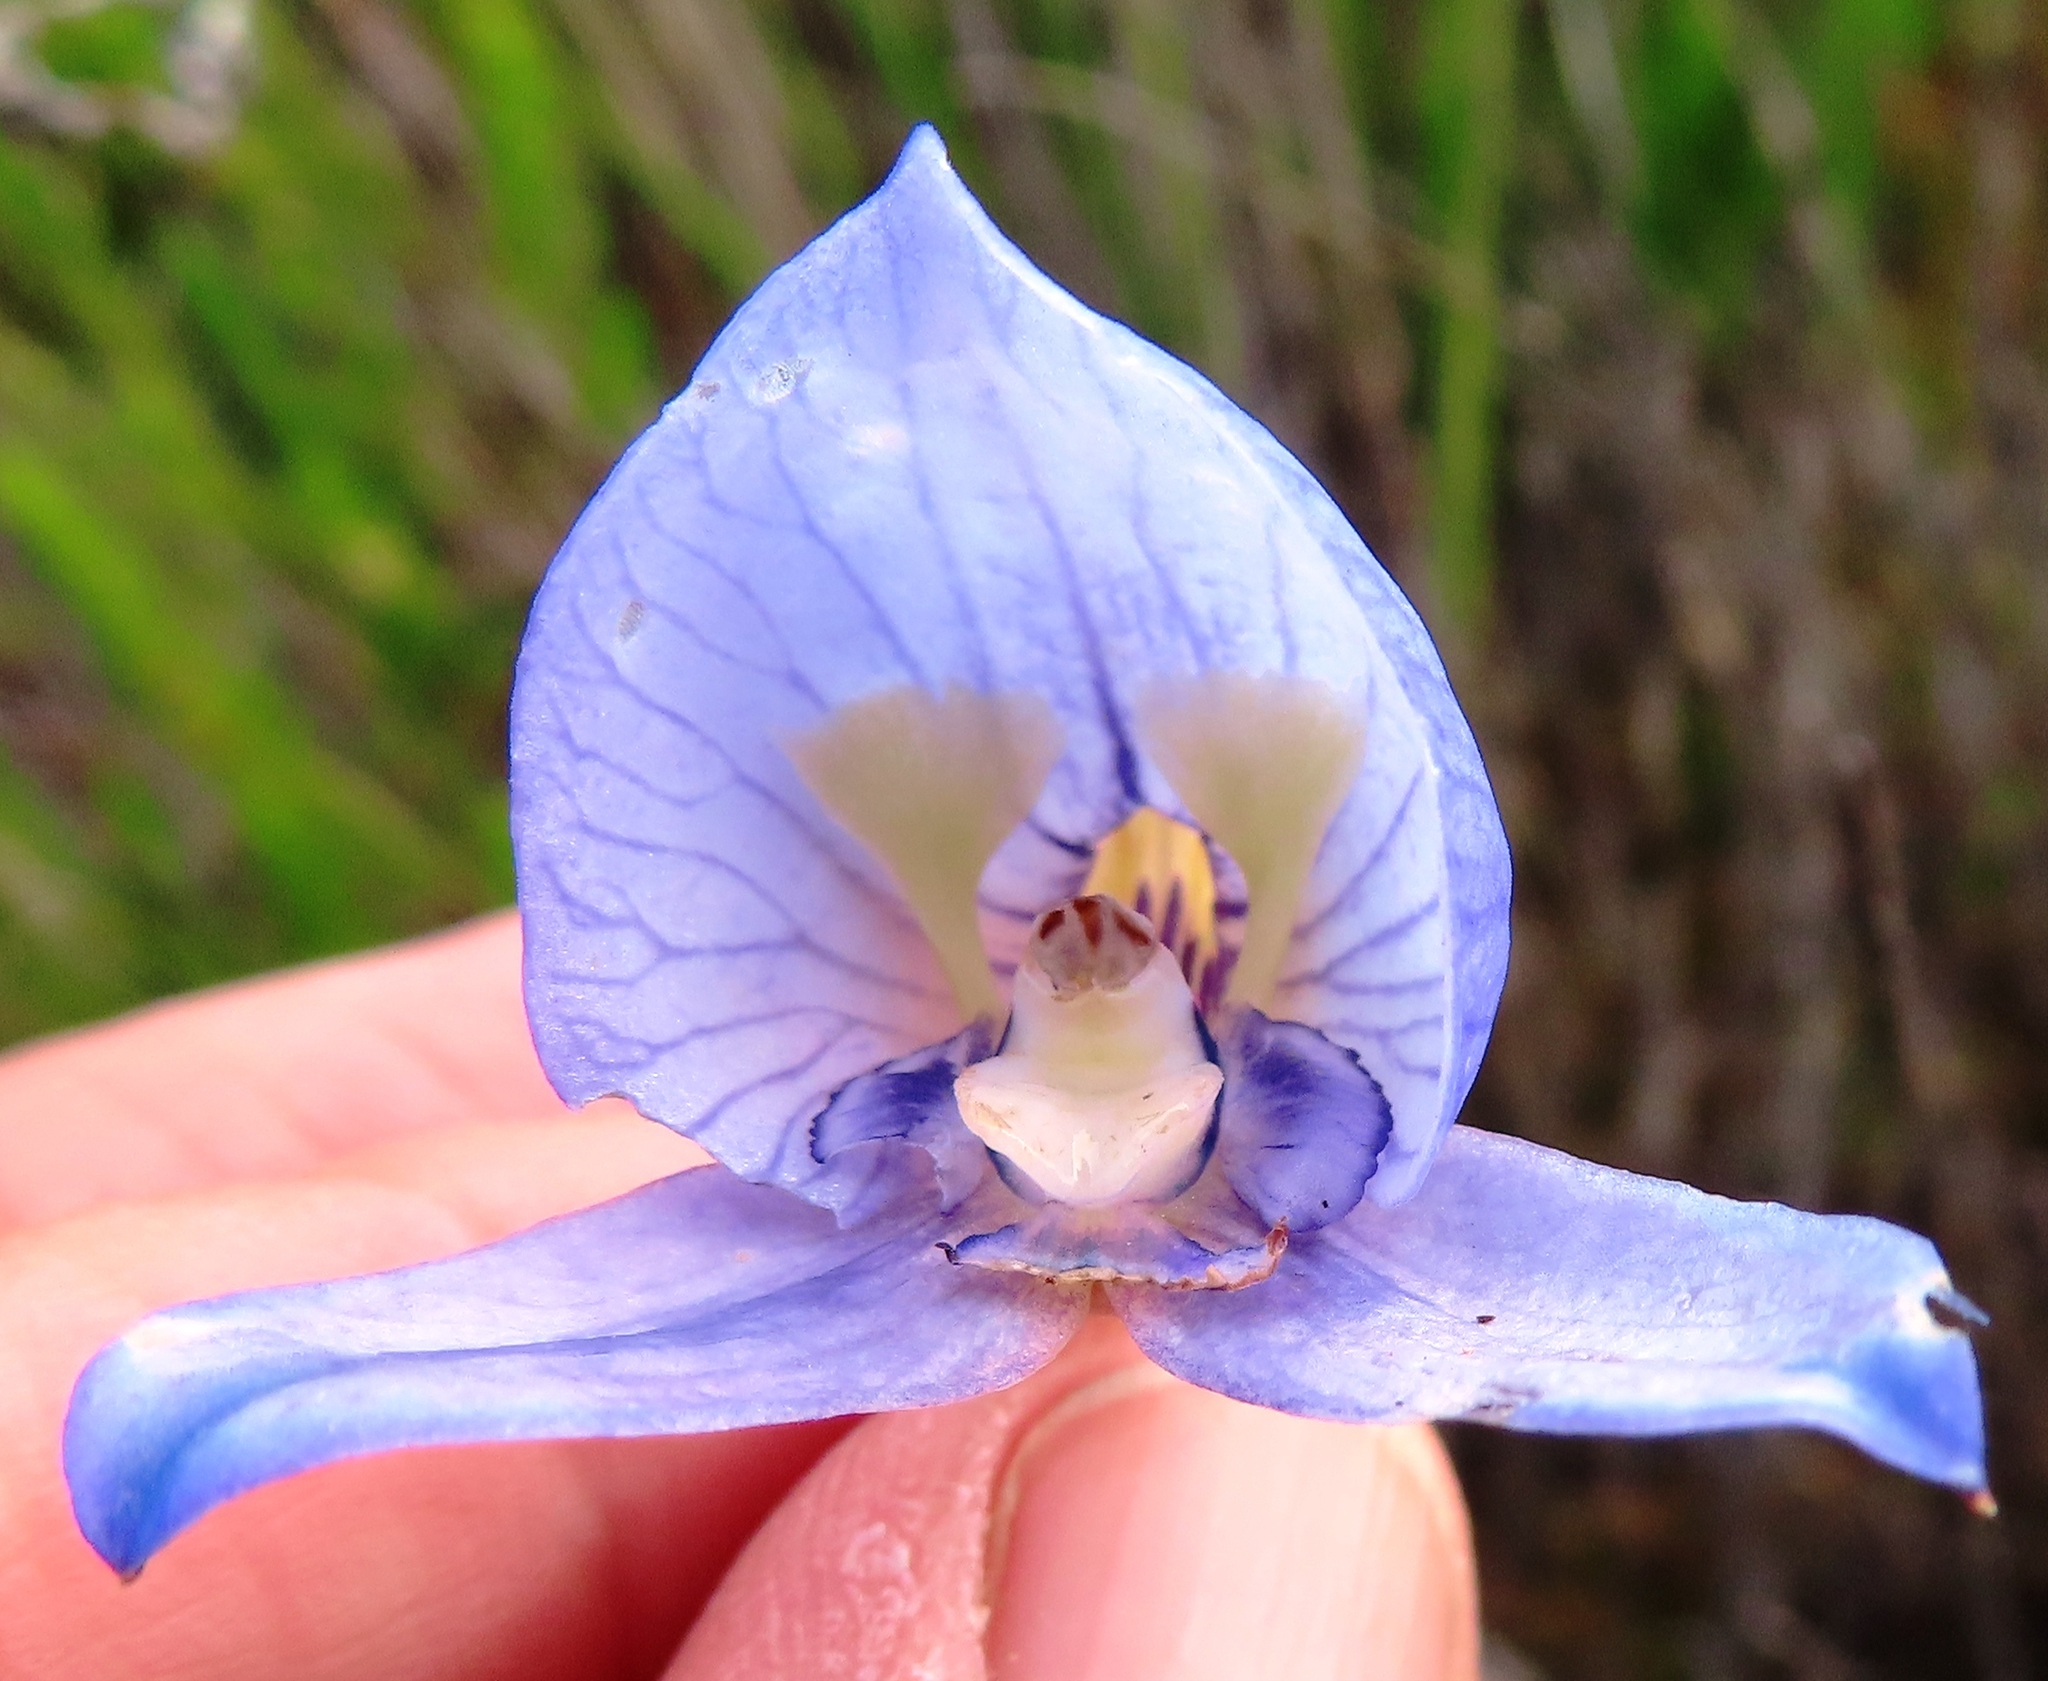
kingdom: Plantae
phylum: Tracheophyta
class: Liliopsida
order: Asparagales
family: Orchidaceae
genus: Disa
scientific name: Disa purpurascens
